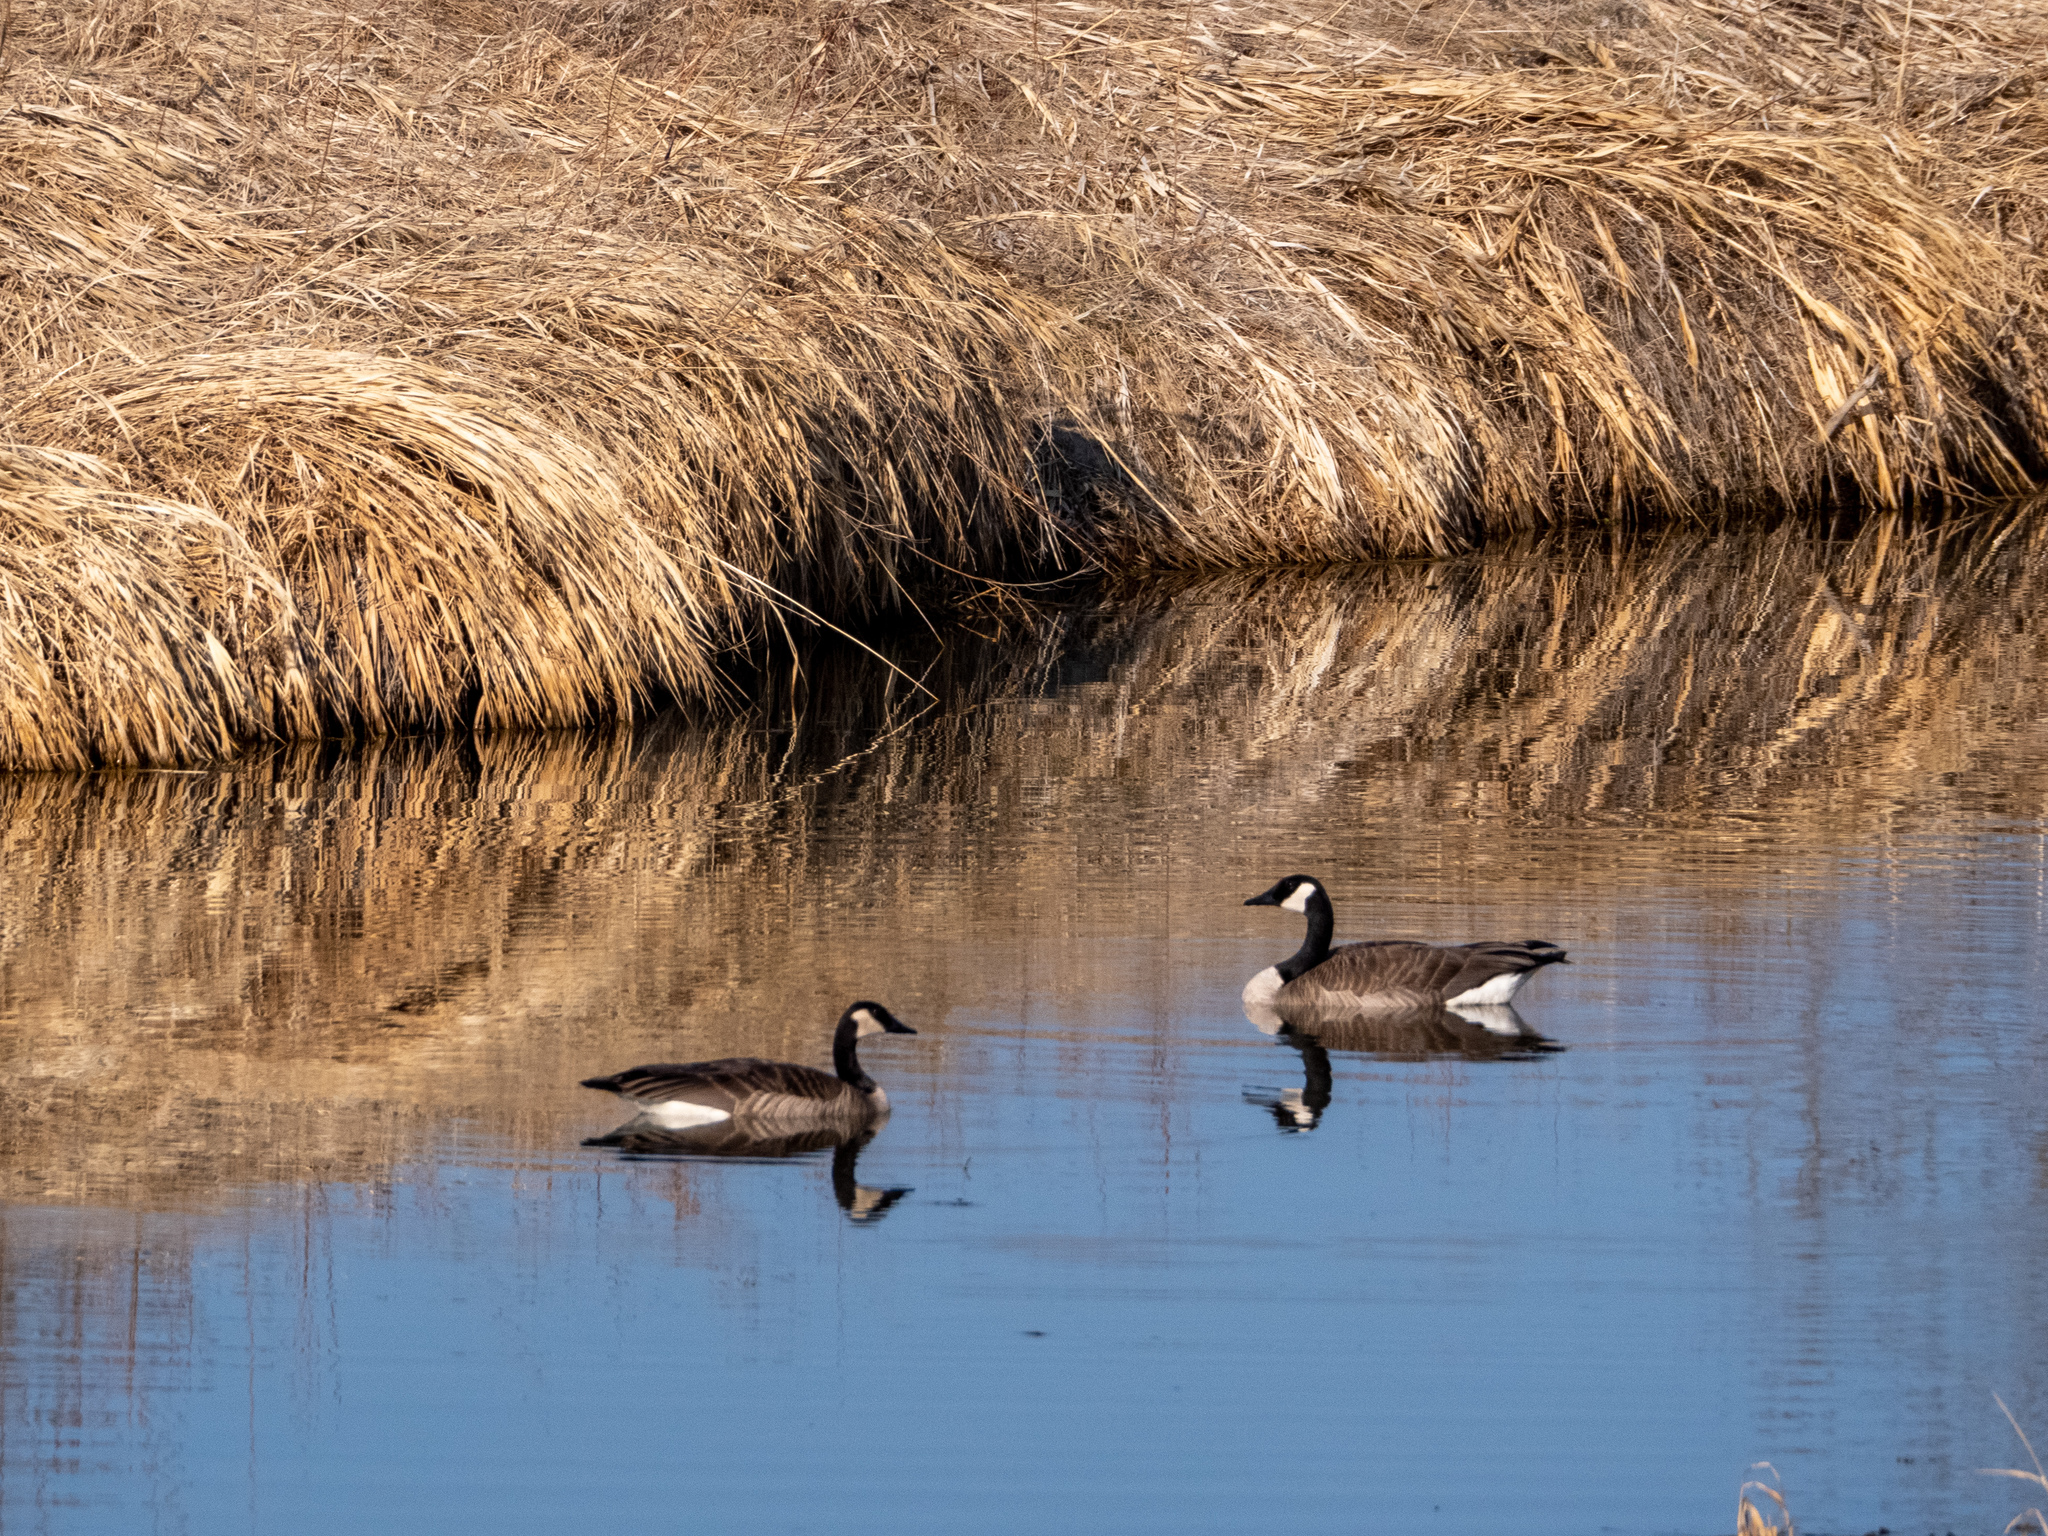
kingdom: Animalia
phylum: Chordata
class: Aves
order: Anseriformes
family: Anatidae
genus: Branta
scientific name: Branta canadensis
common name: Canada goose
